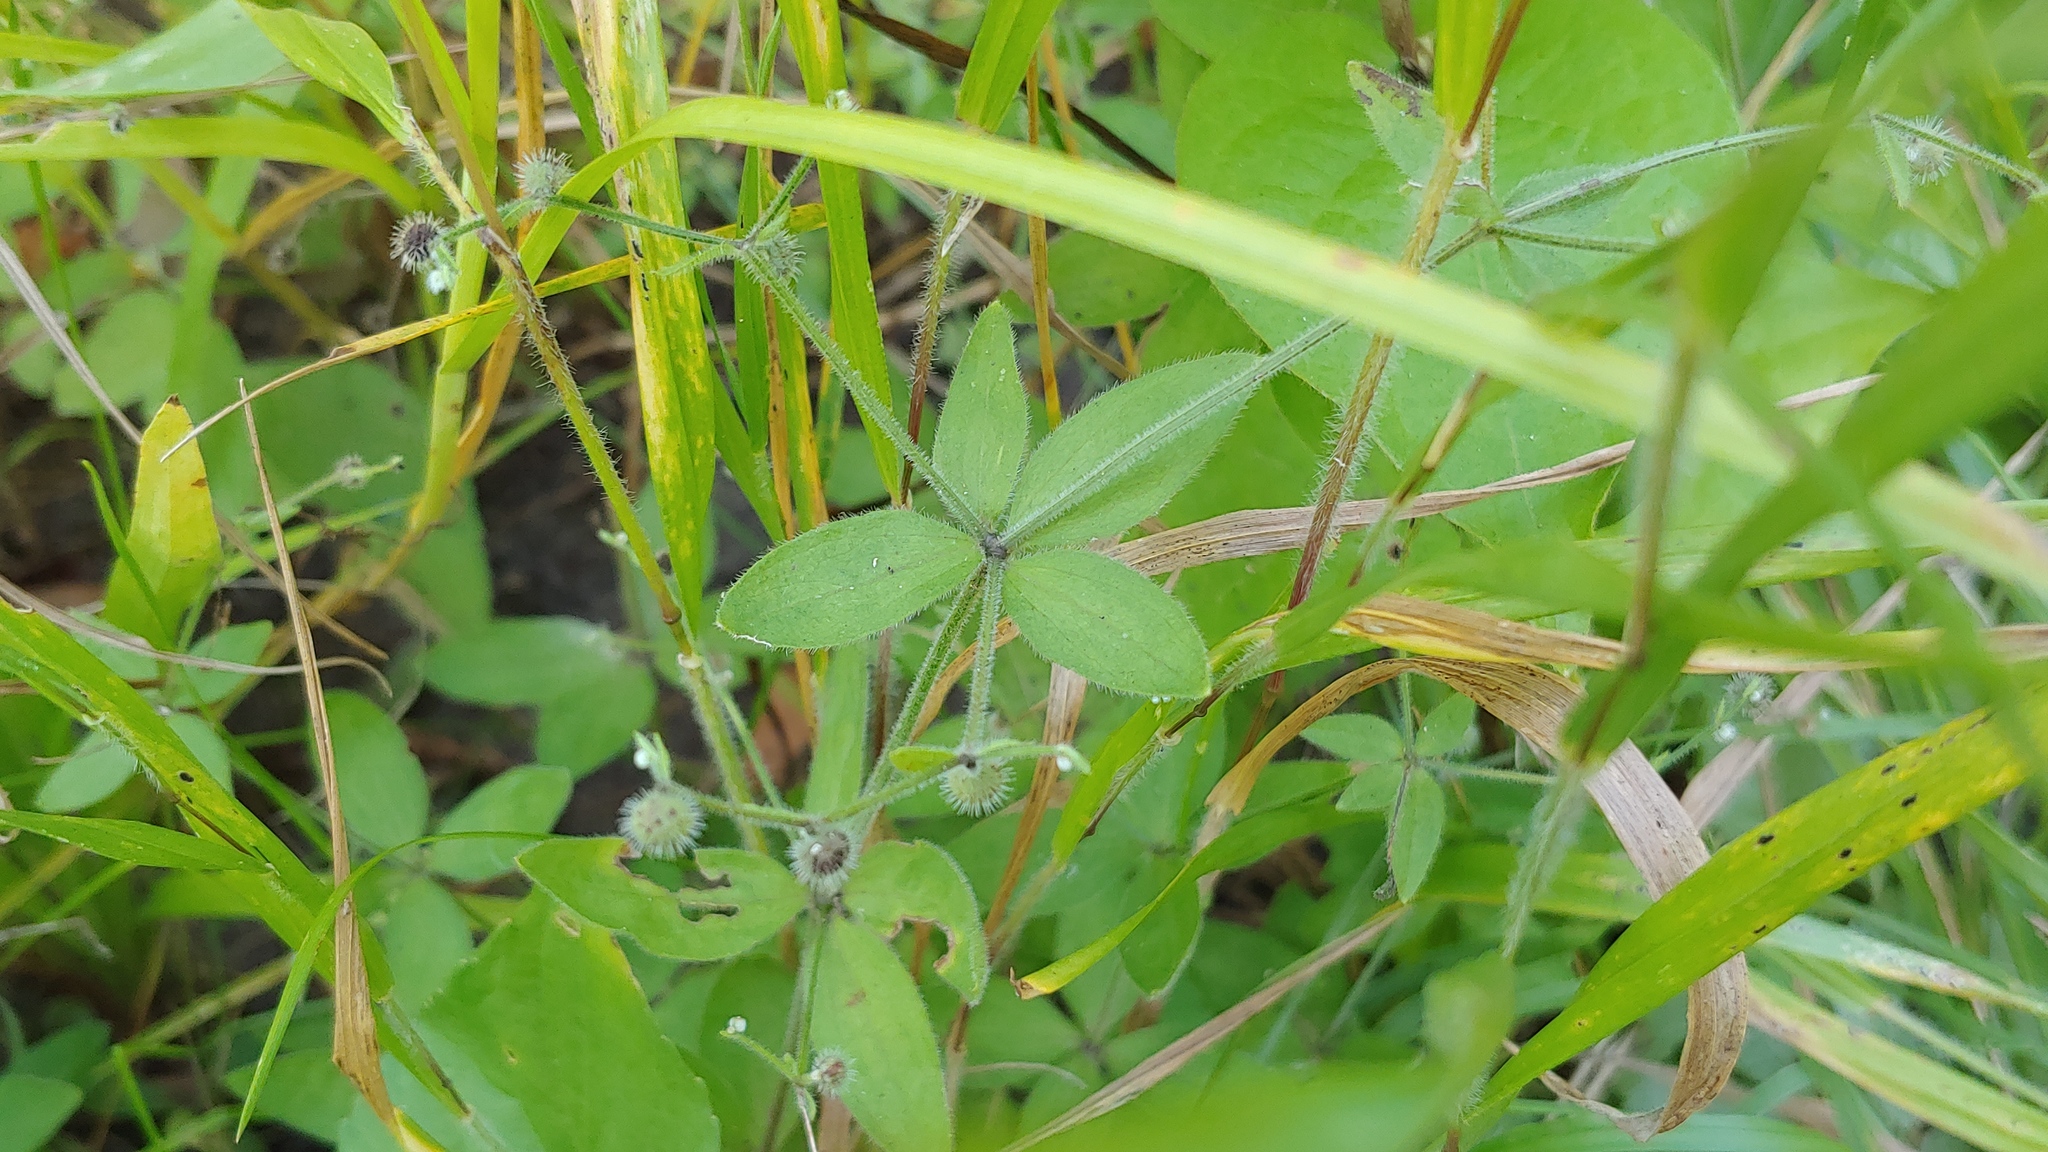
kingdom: Plantae
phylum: Tracheophyta
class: Magnoliopsida
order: Gentianales
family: Rubiaceae
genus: Galium
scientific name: Galium circaezans
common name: Forest bedstraw
